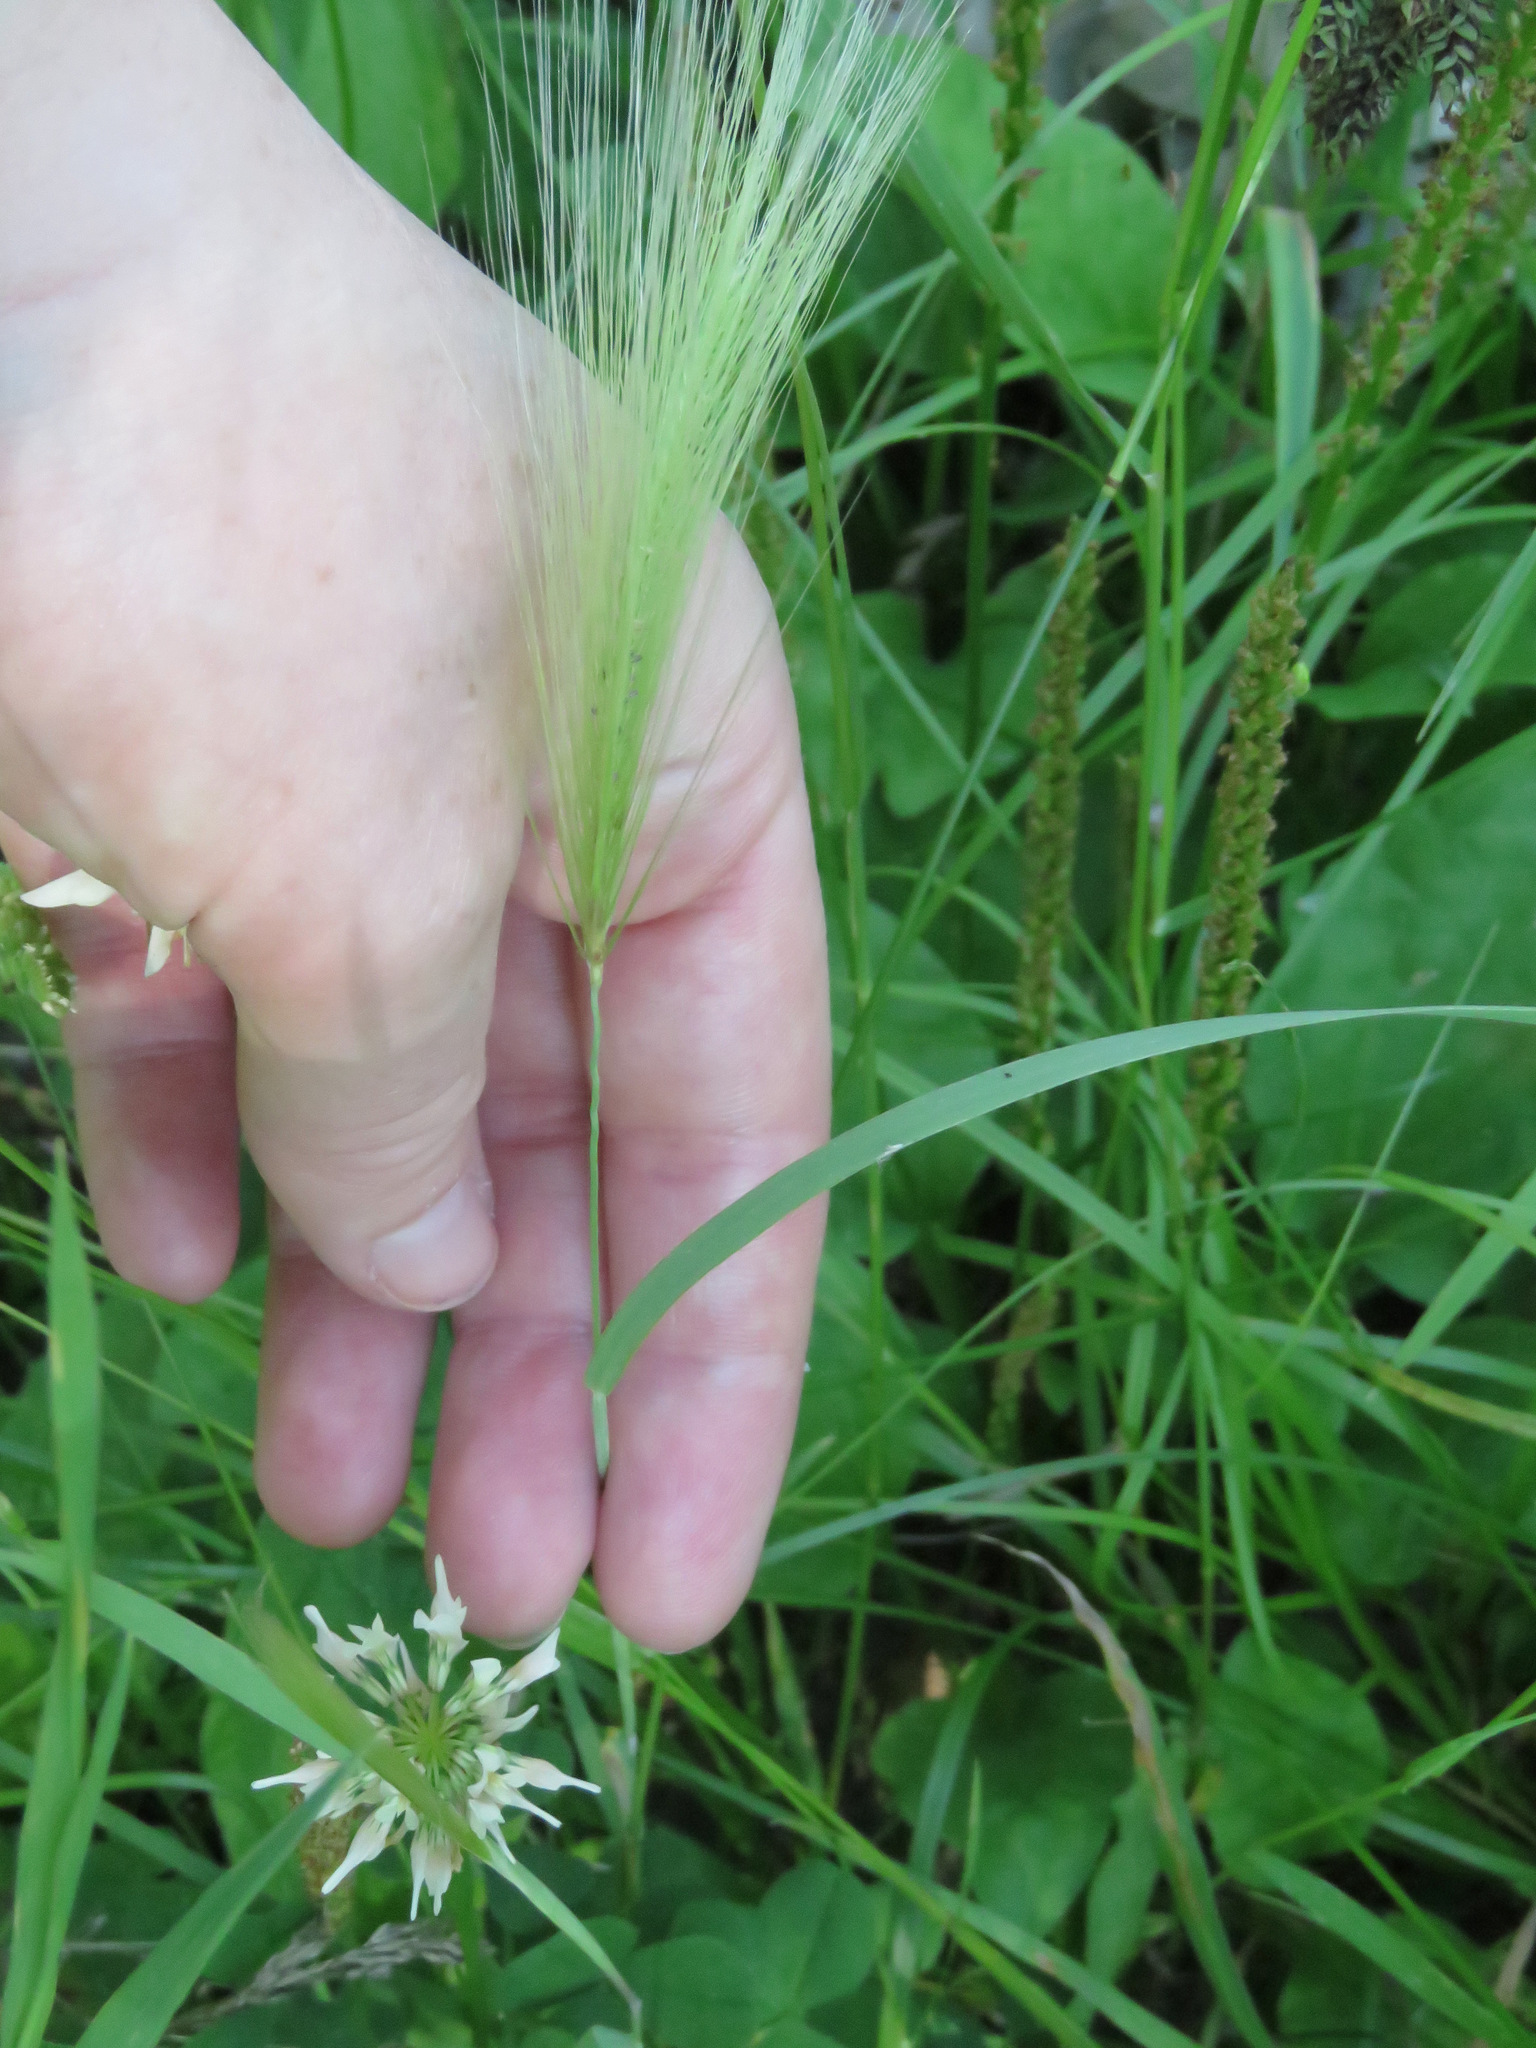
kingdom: Plantae
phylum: Tracheophyta
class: Liliopsida
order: Poales
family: Poaceae
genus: Hordeum
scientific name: Hordeum jubatum
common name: Foxtail barley
